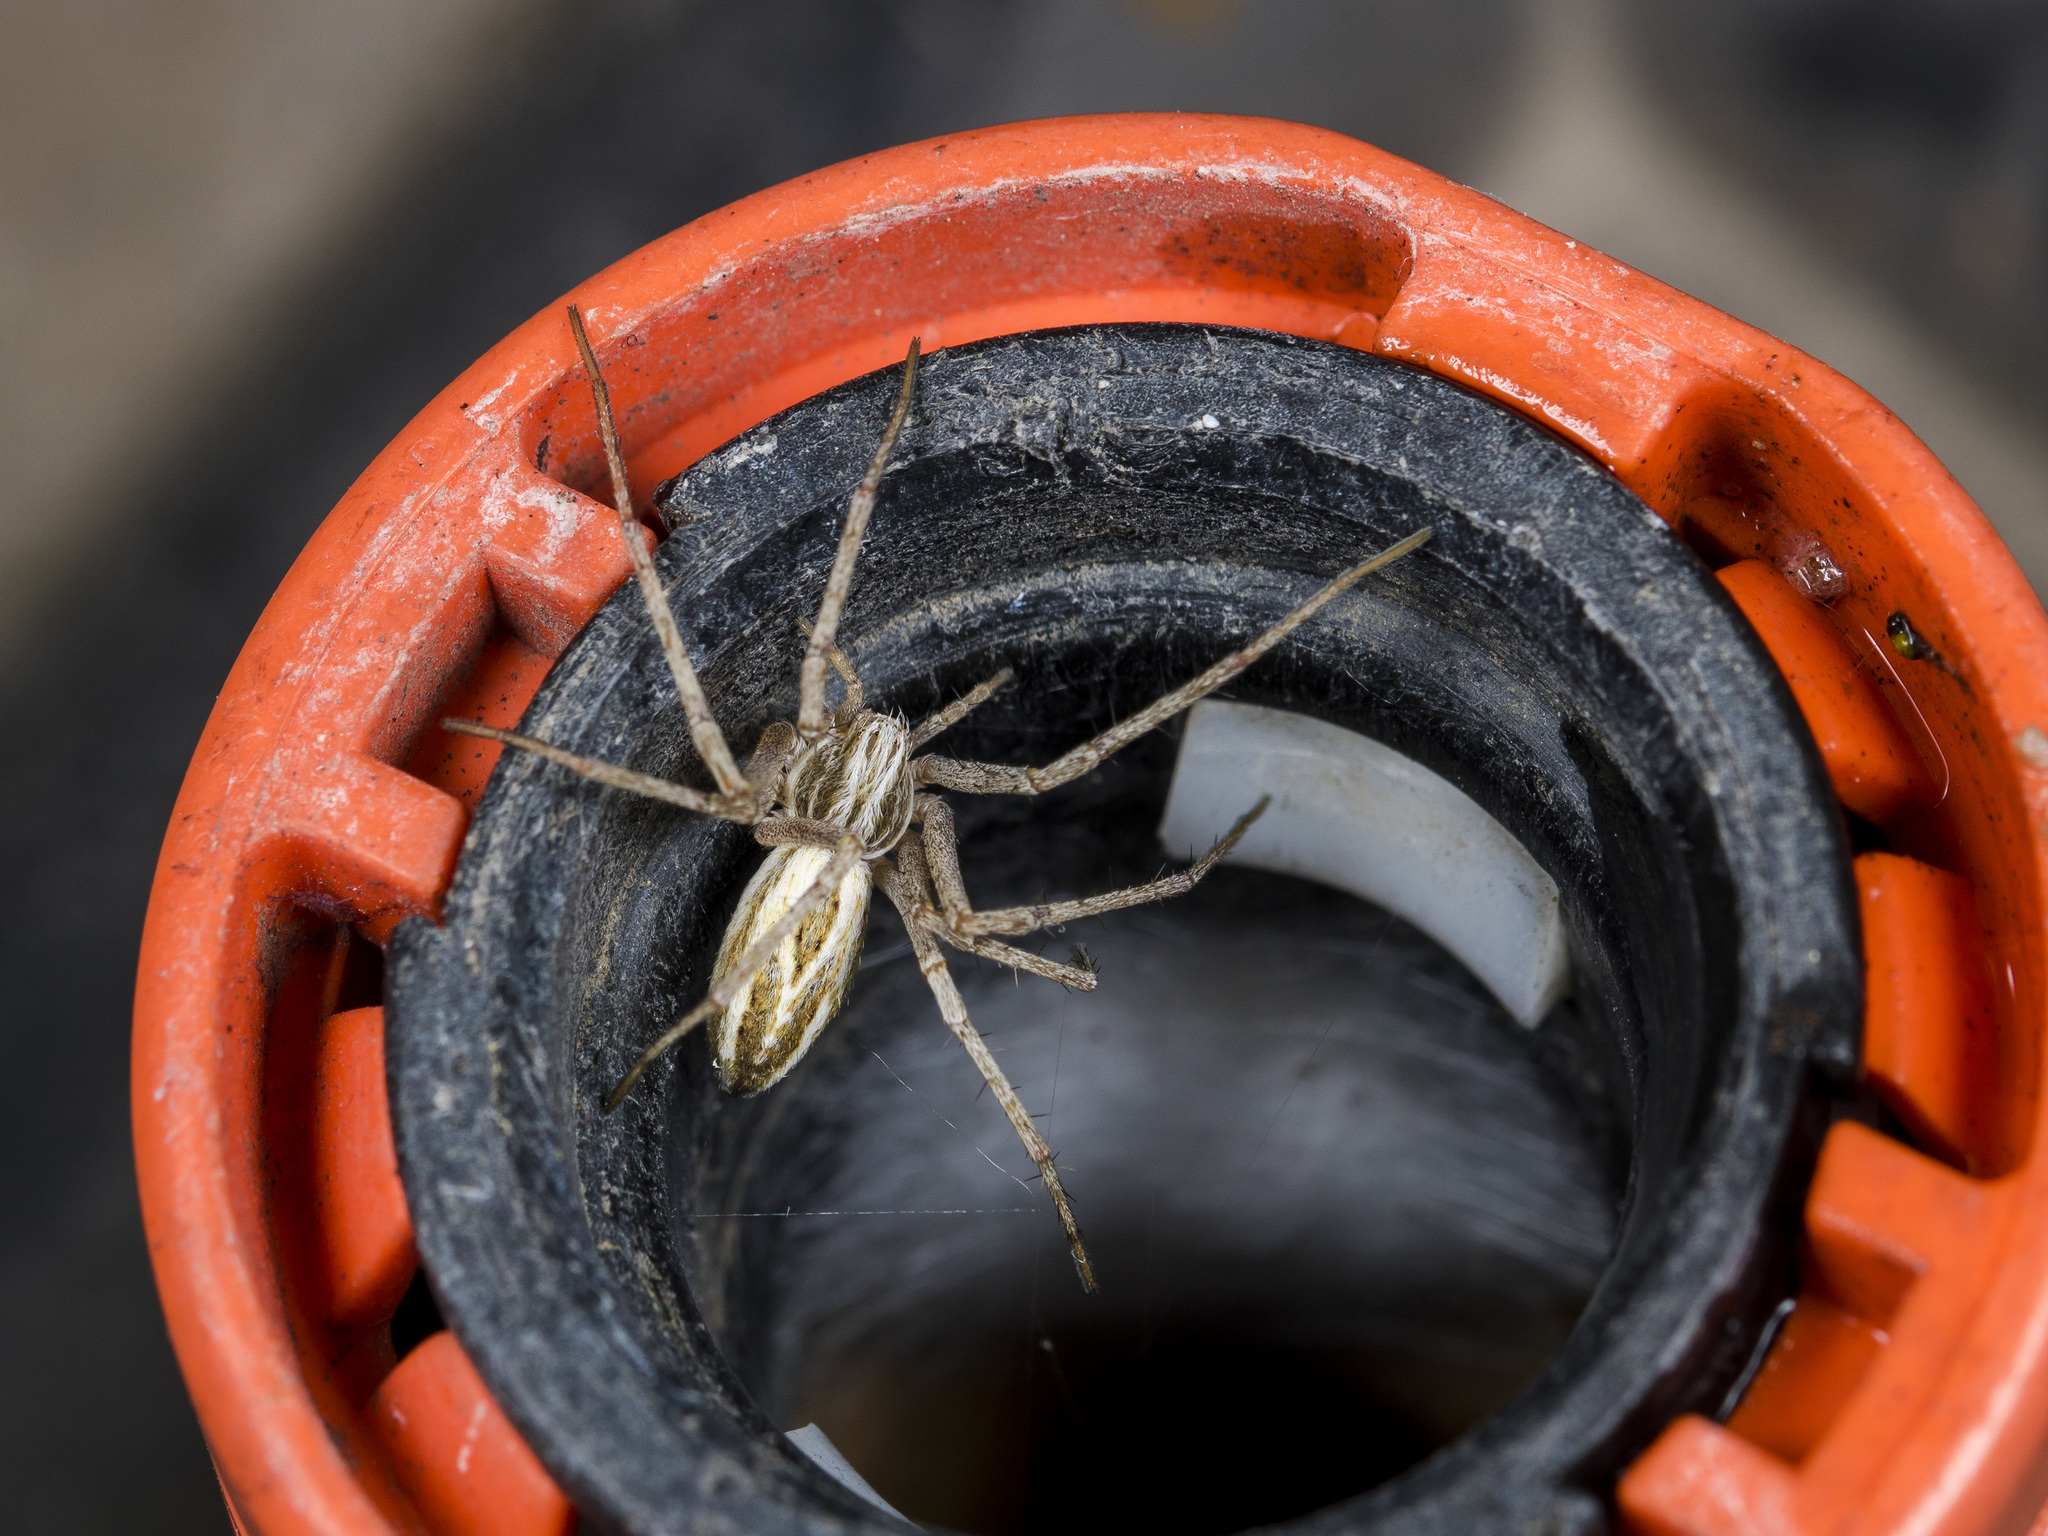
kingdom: Animalia
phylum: Arthropoda
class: Arachnida
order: Araneae
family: Philodromidae
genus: Thanatus
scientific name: Thanatus oblongiusculus
